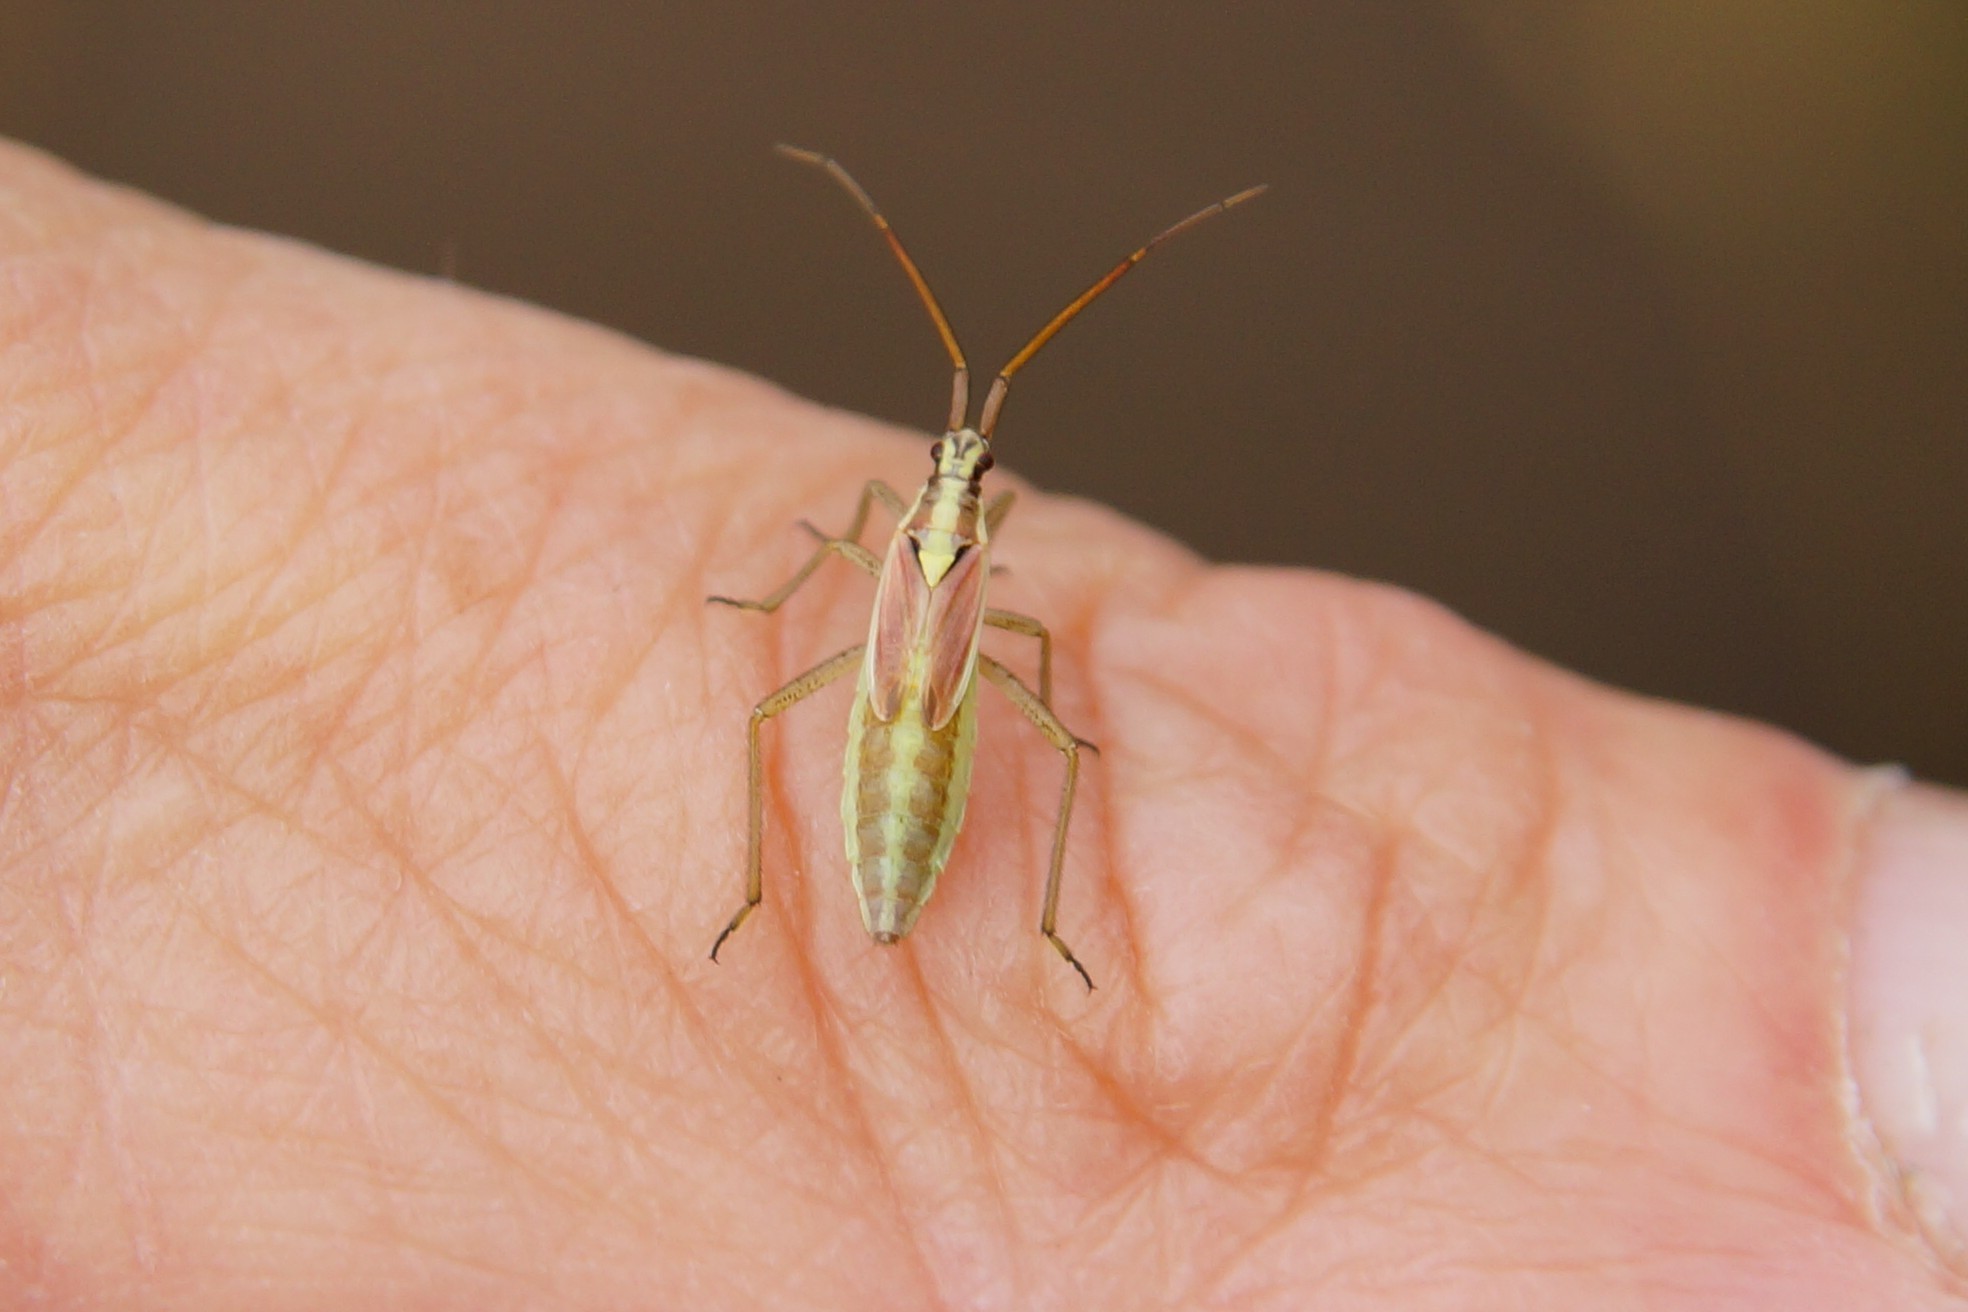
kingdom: Animalia
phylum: Arthropoda
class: Insecta
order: Hemiptera
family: Miridae
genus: Leptopterna
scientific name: Leptopterna ferrugata
